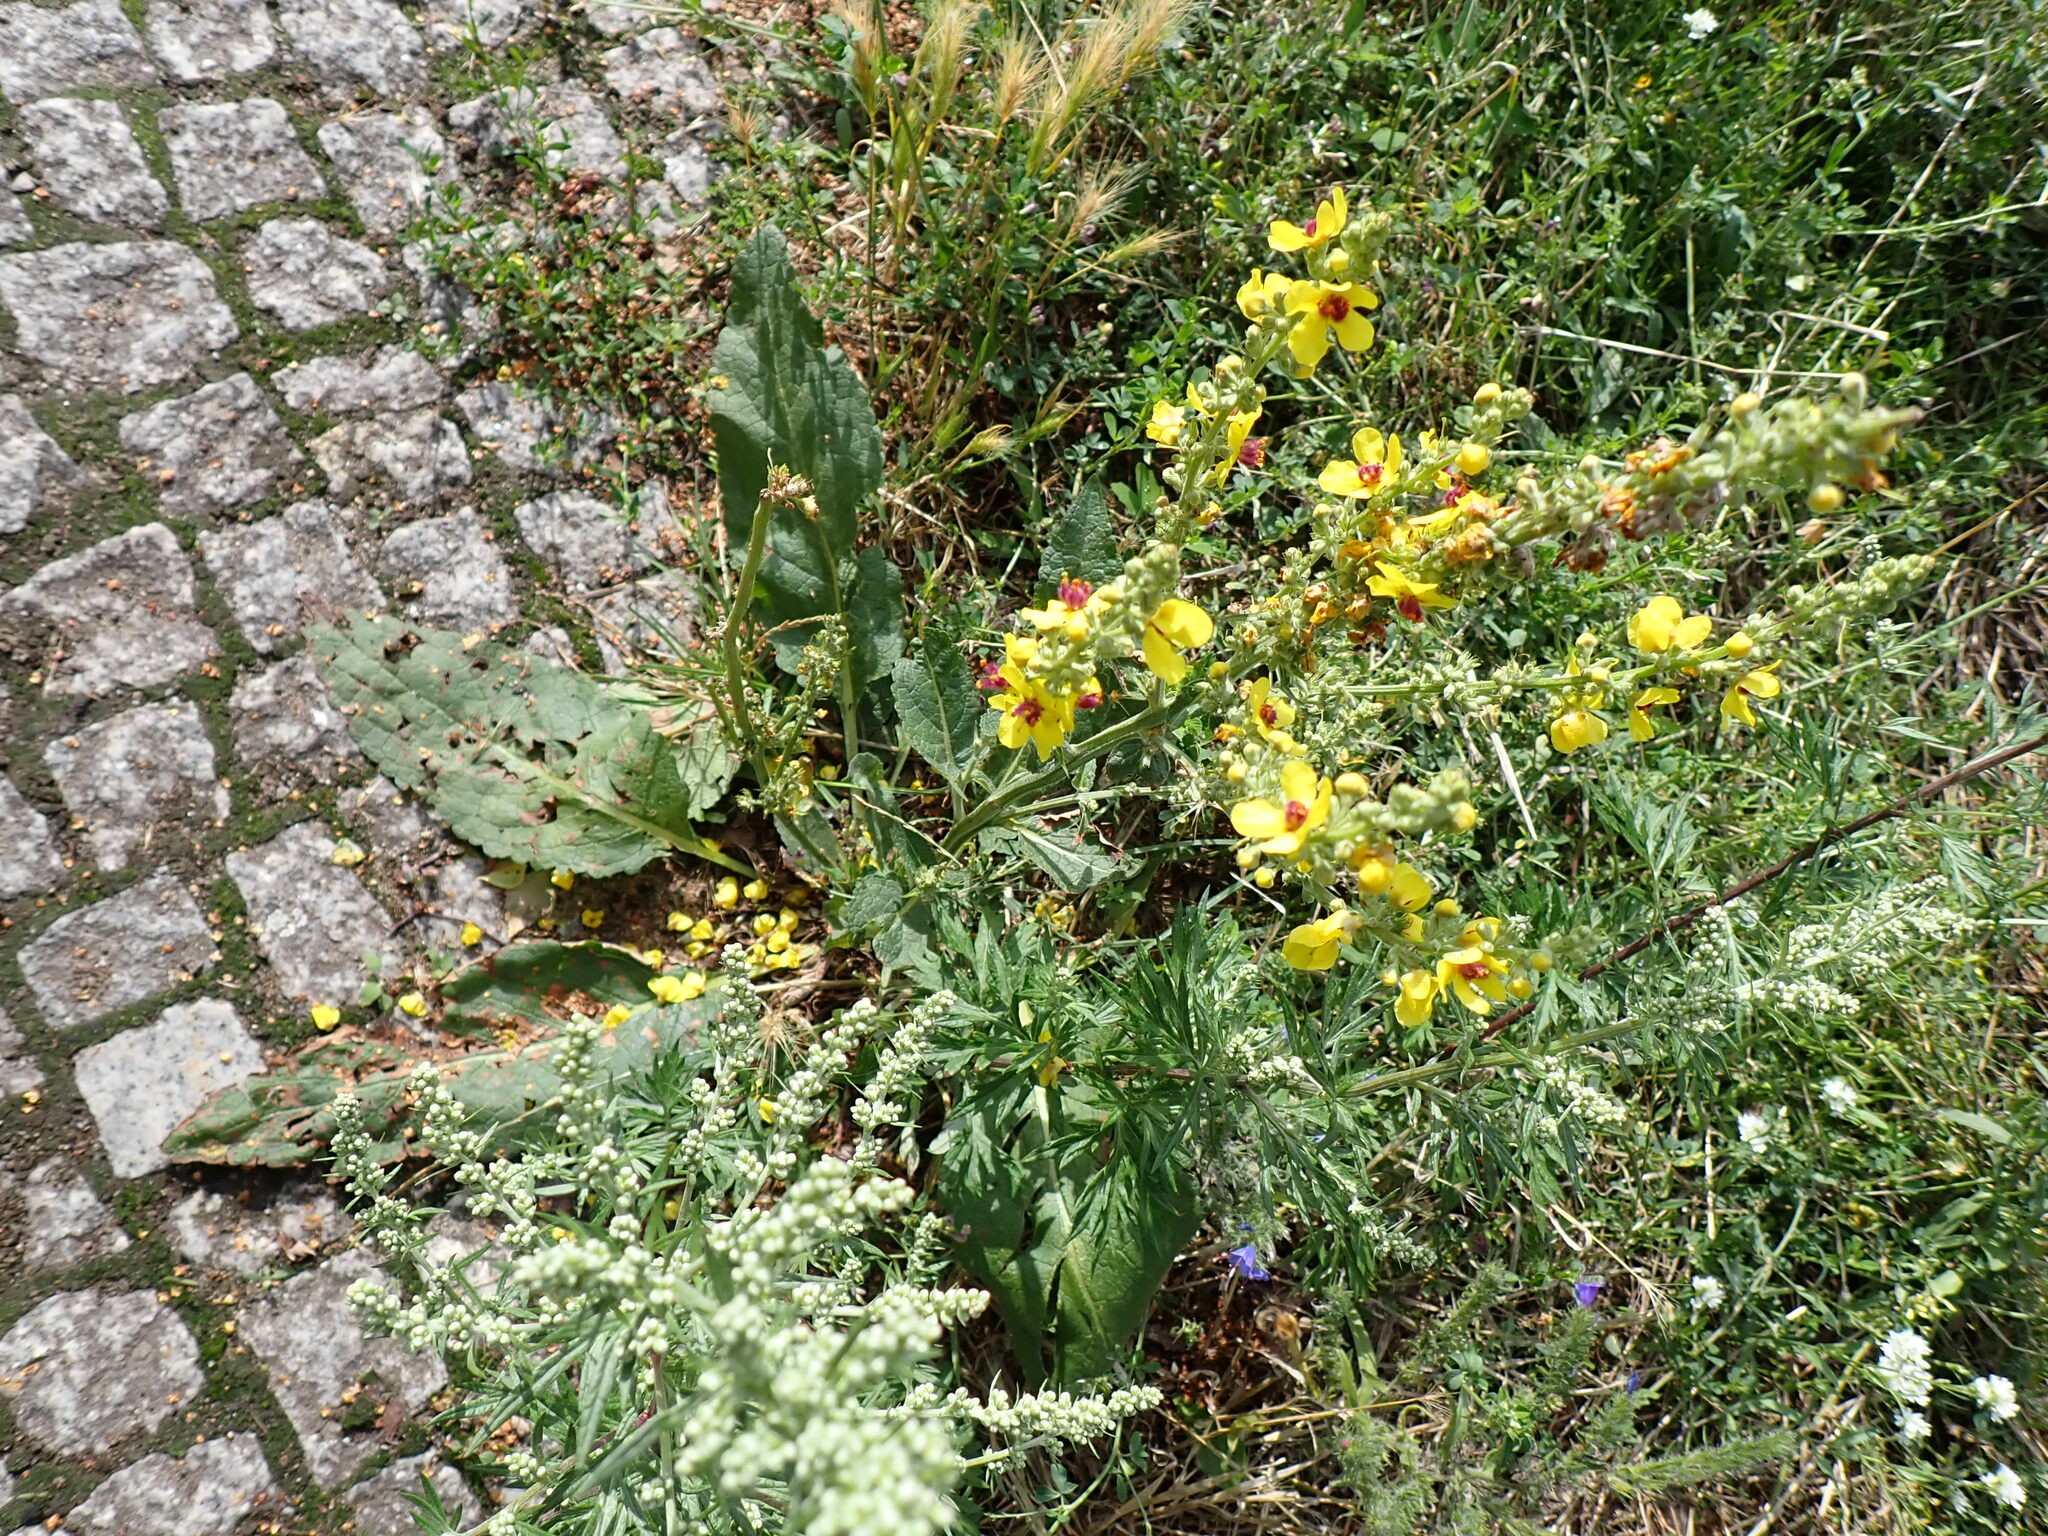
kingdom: Plantae
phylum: Tracheophyta
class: Magnoliopsida
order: Lamiales
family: Scrophulariaceae
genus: Verbascum
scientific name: Verbascum nigrum
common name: Dark mullein
